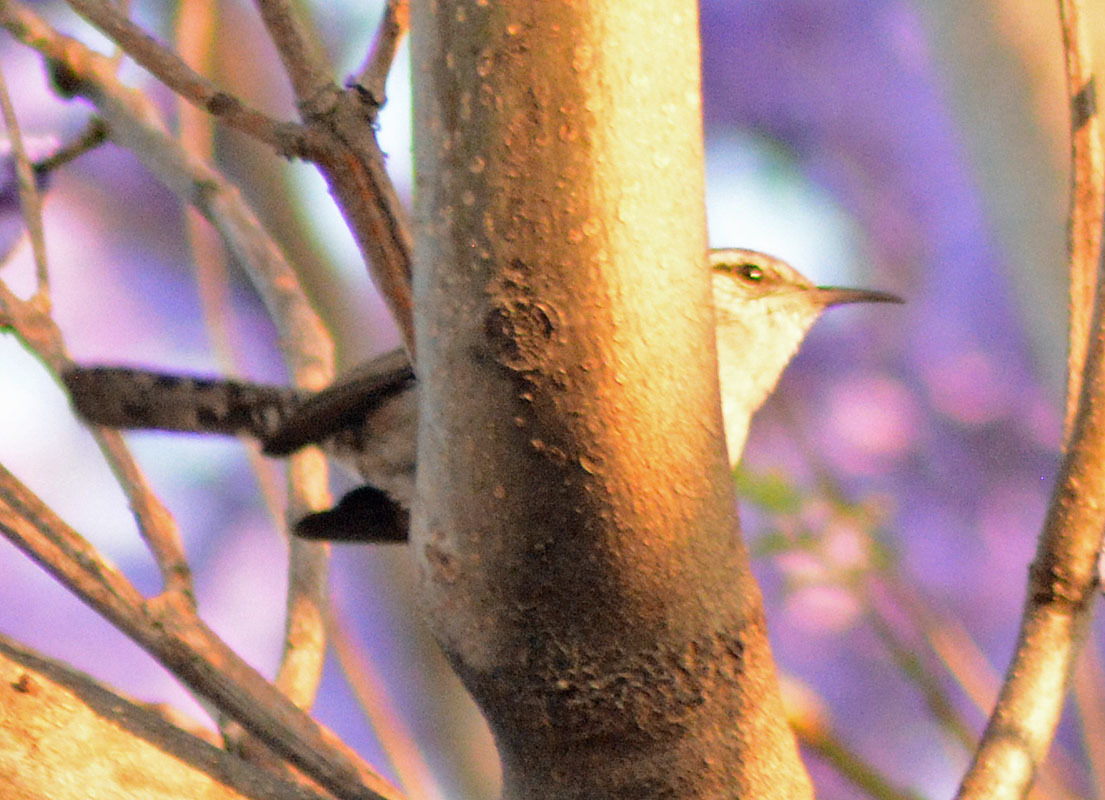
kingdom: Animalia
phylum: Chordata
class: Aves
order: Passeriformes
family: Troglodytidae
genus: Thryomanes
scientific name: Thryomanes bewickii
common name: Bewick's wren
